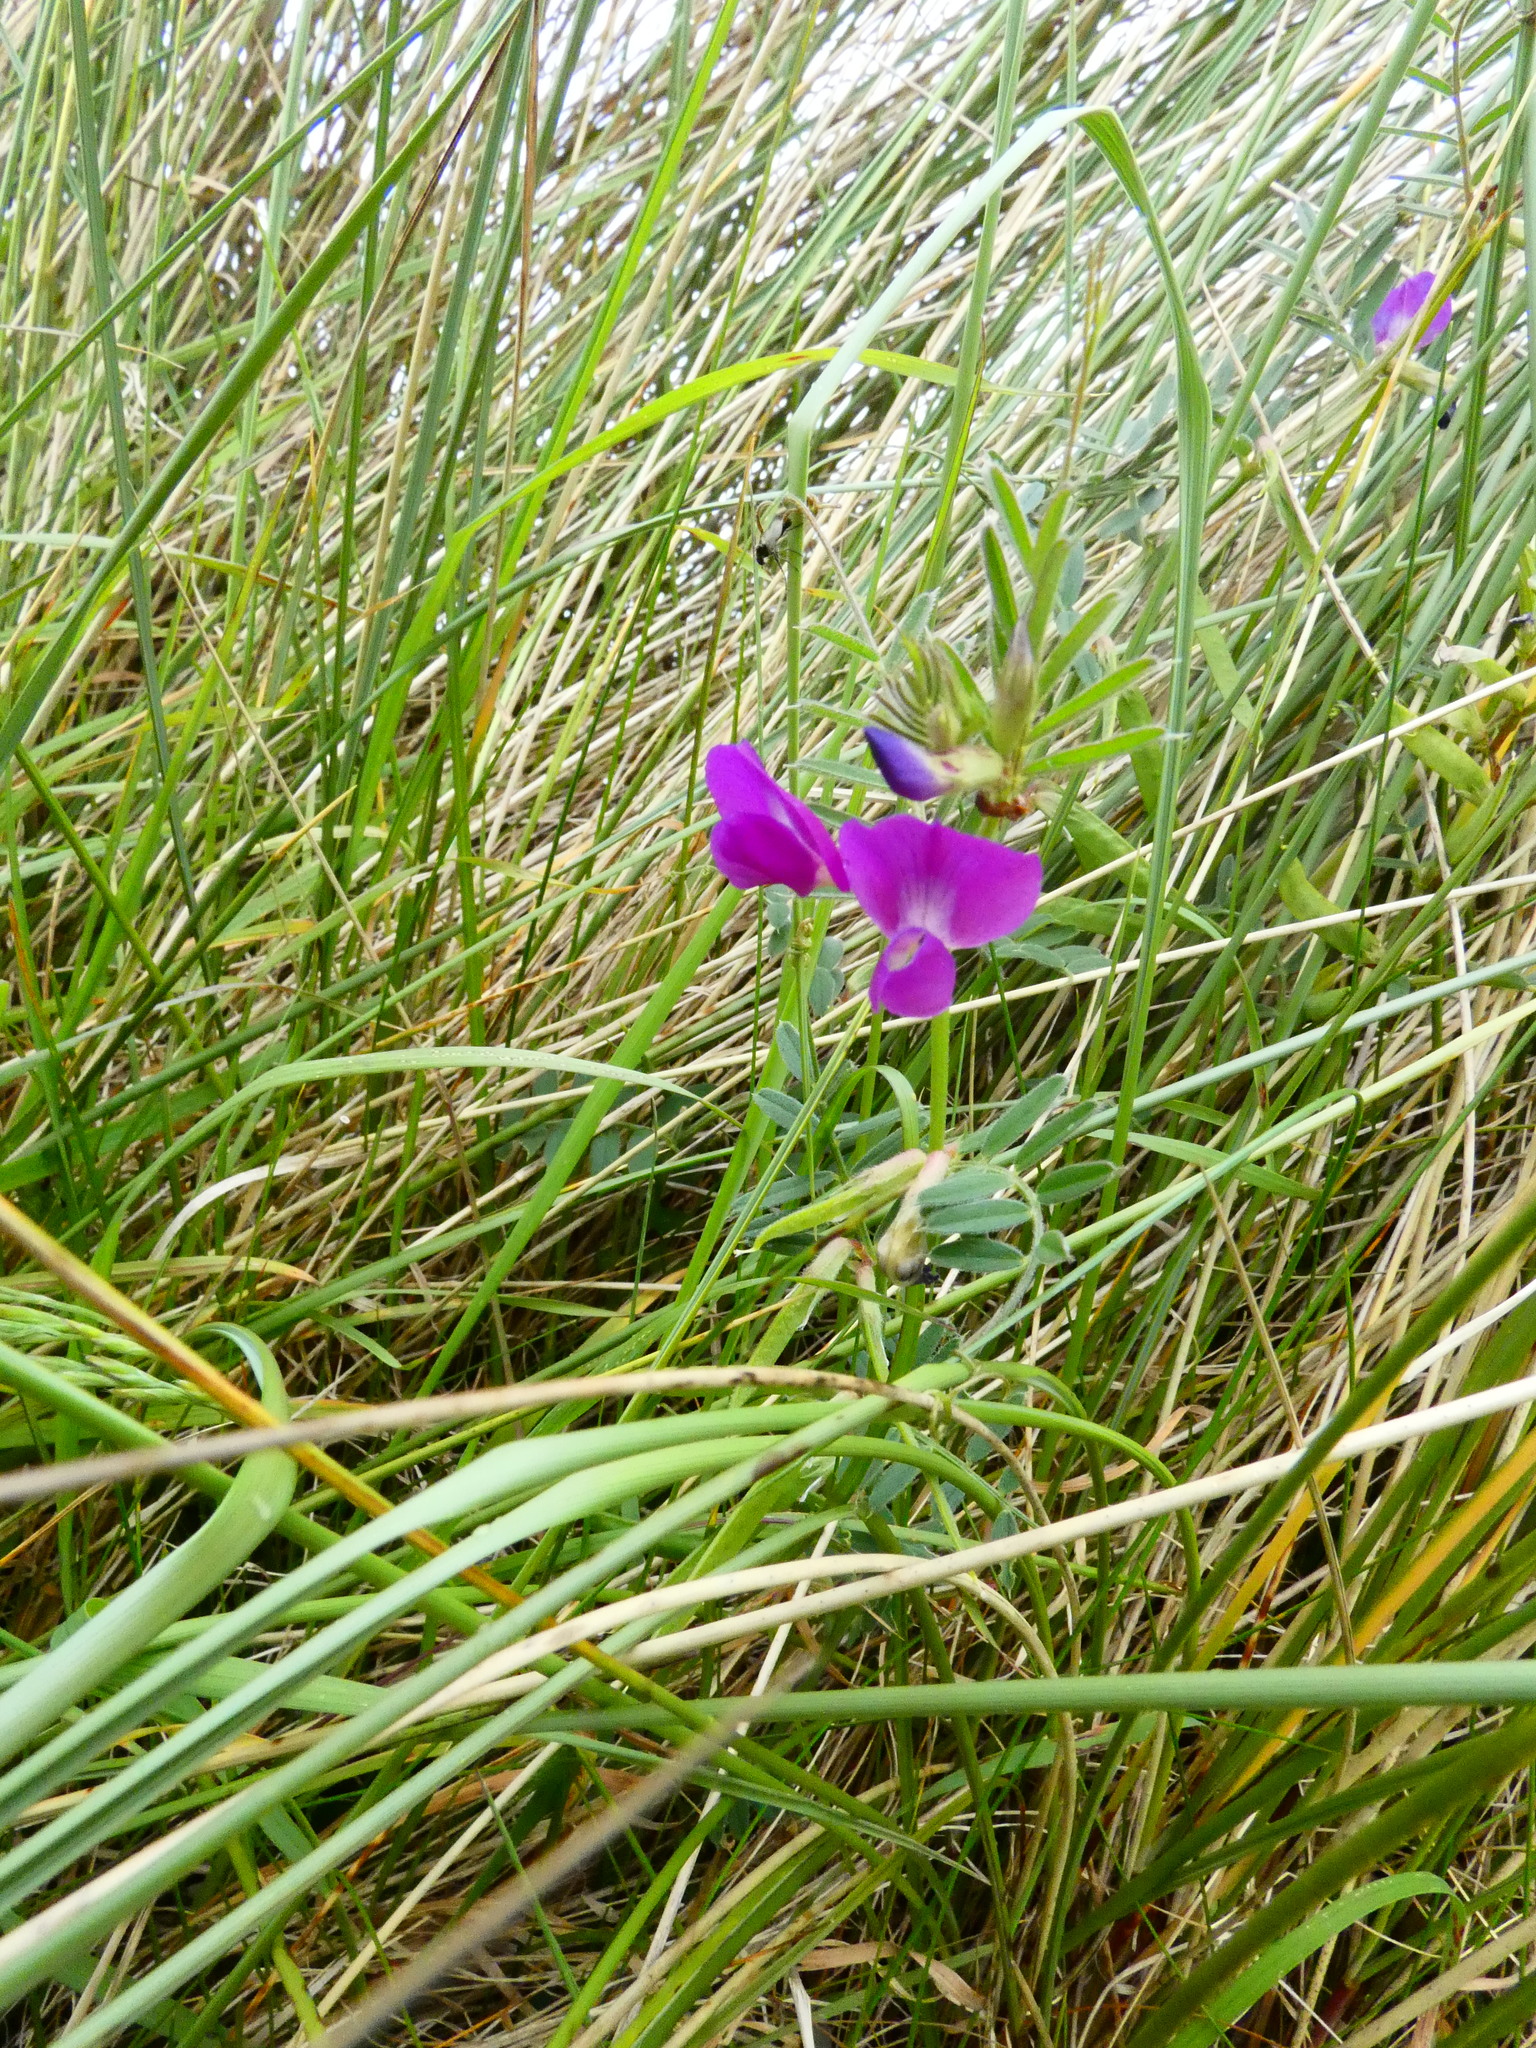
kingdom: Plantae
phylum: Tracheophyta
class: Magnoliopsida
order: Fabales
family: Fabaceae
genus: Vicia
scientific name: Vicia sativa
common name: Garden vetch
